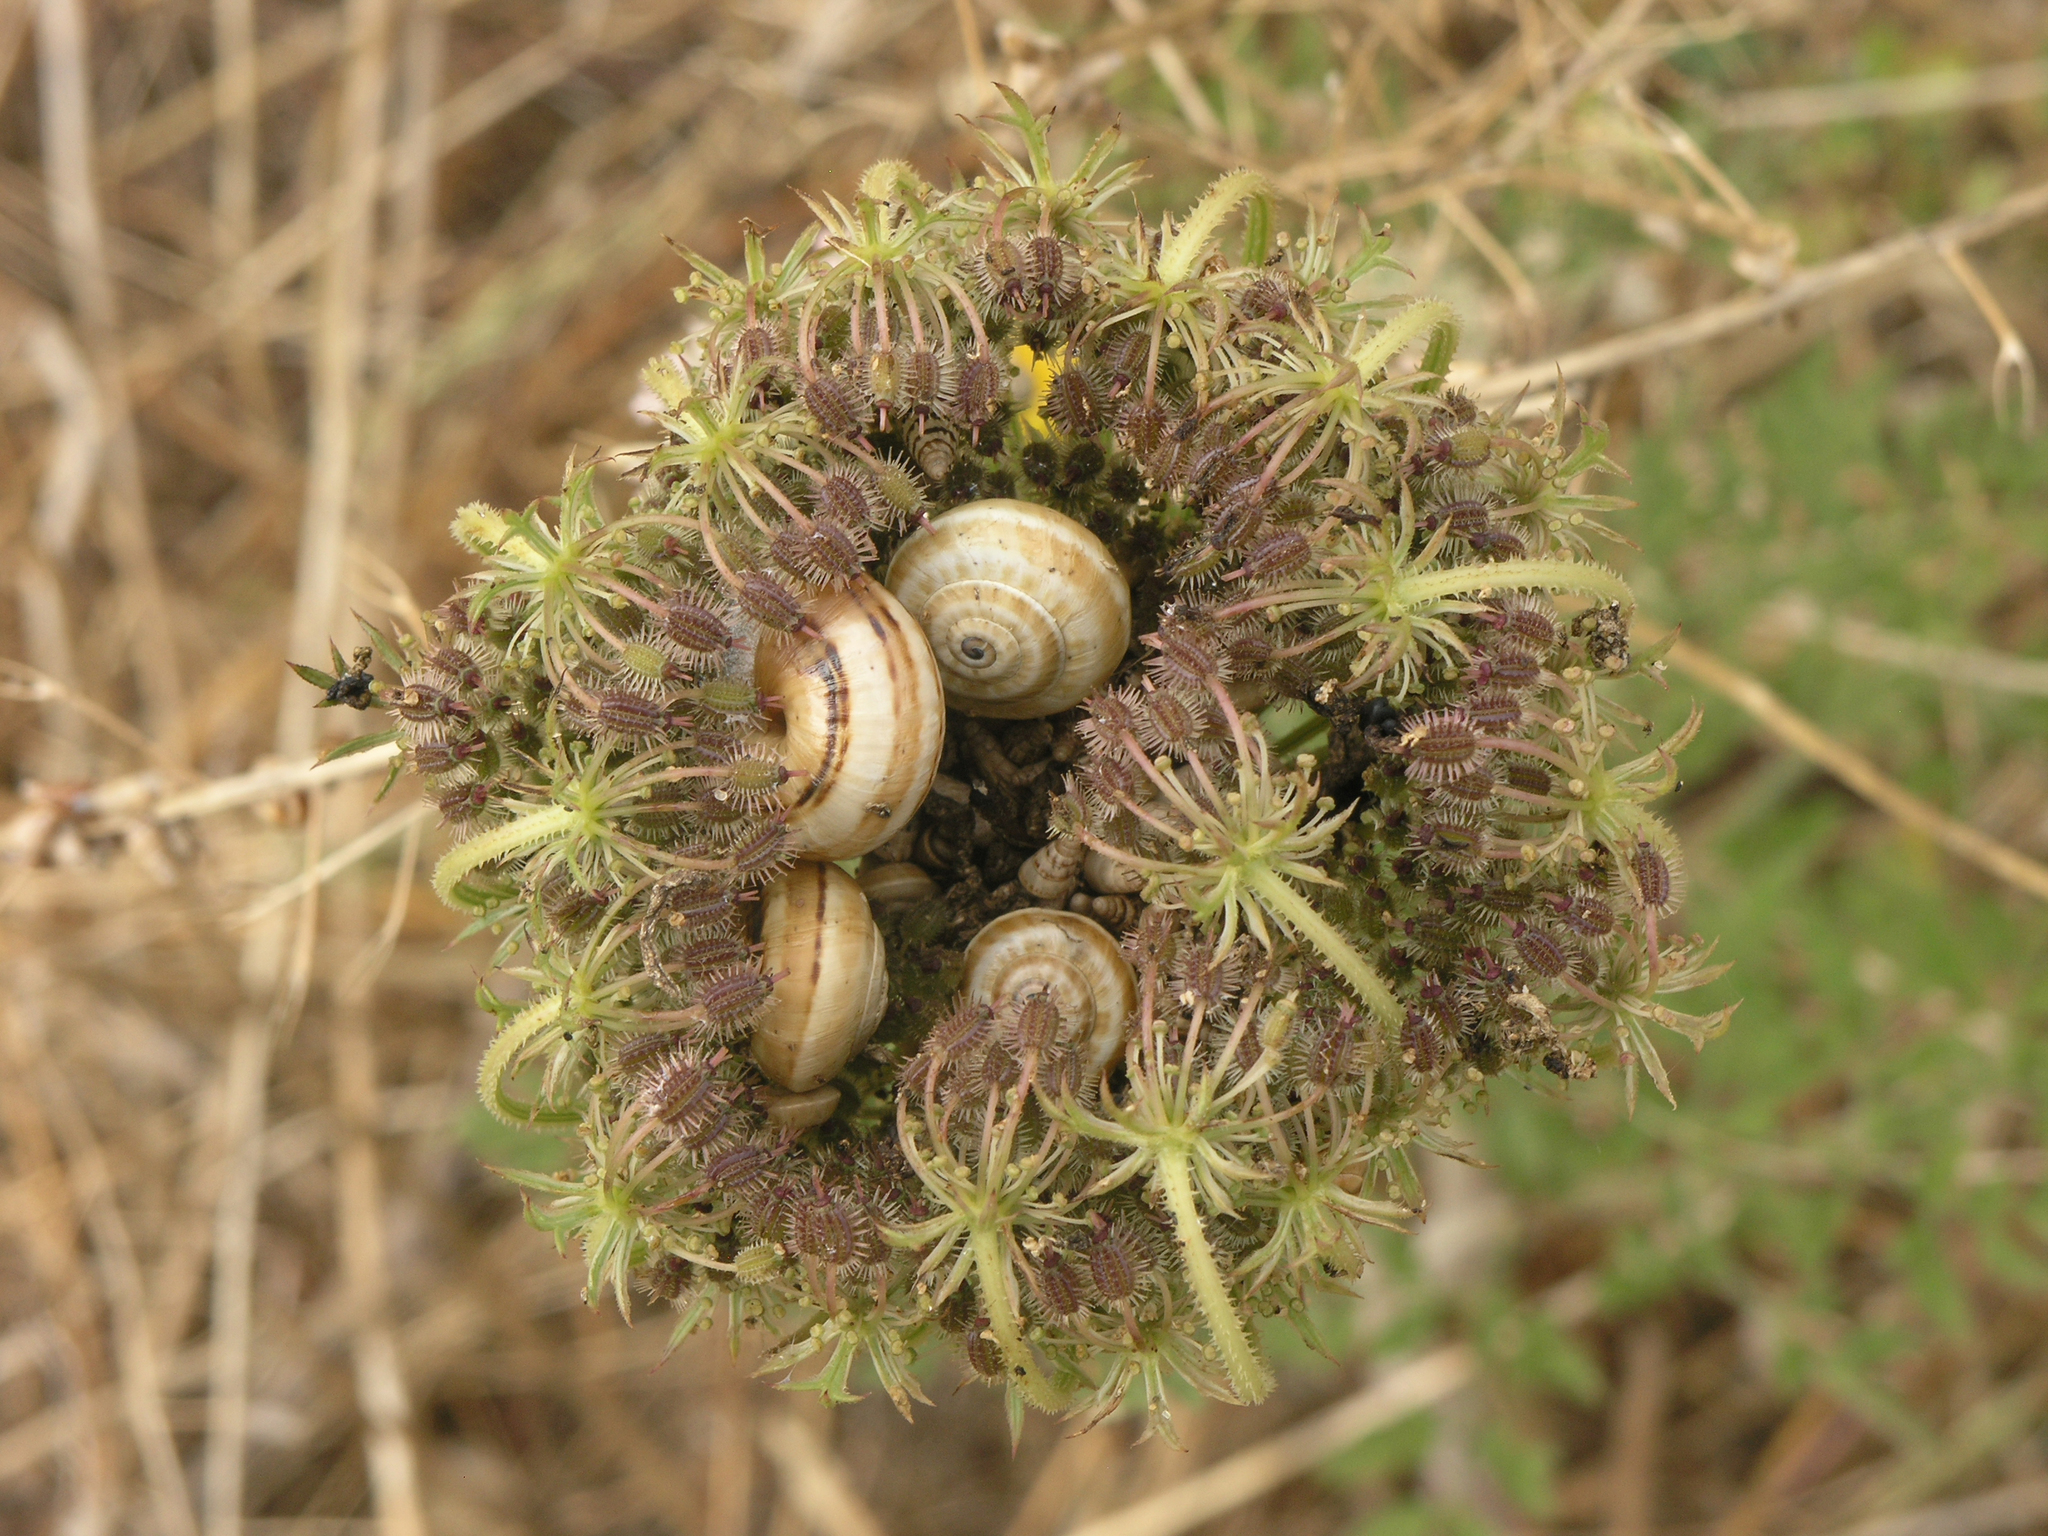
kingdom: Animalia
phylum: Mollusca
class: Gastropoda
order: Stylommatophora
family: Helicidae
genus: Theba
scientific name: Theba pisana
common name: White snail
